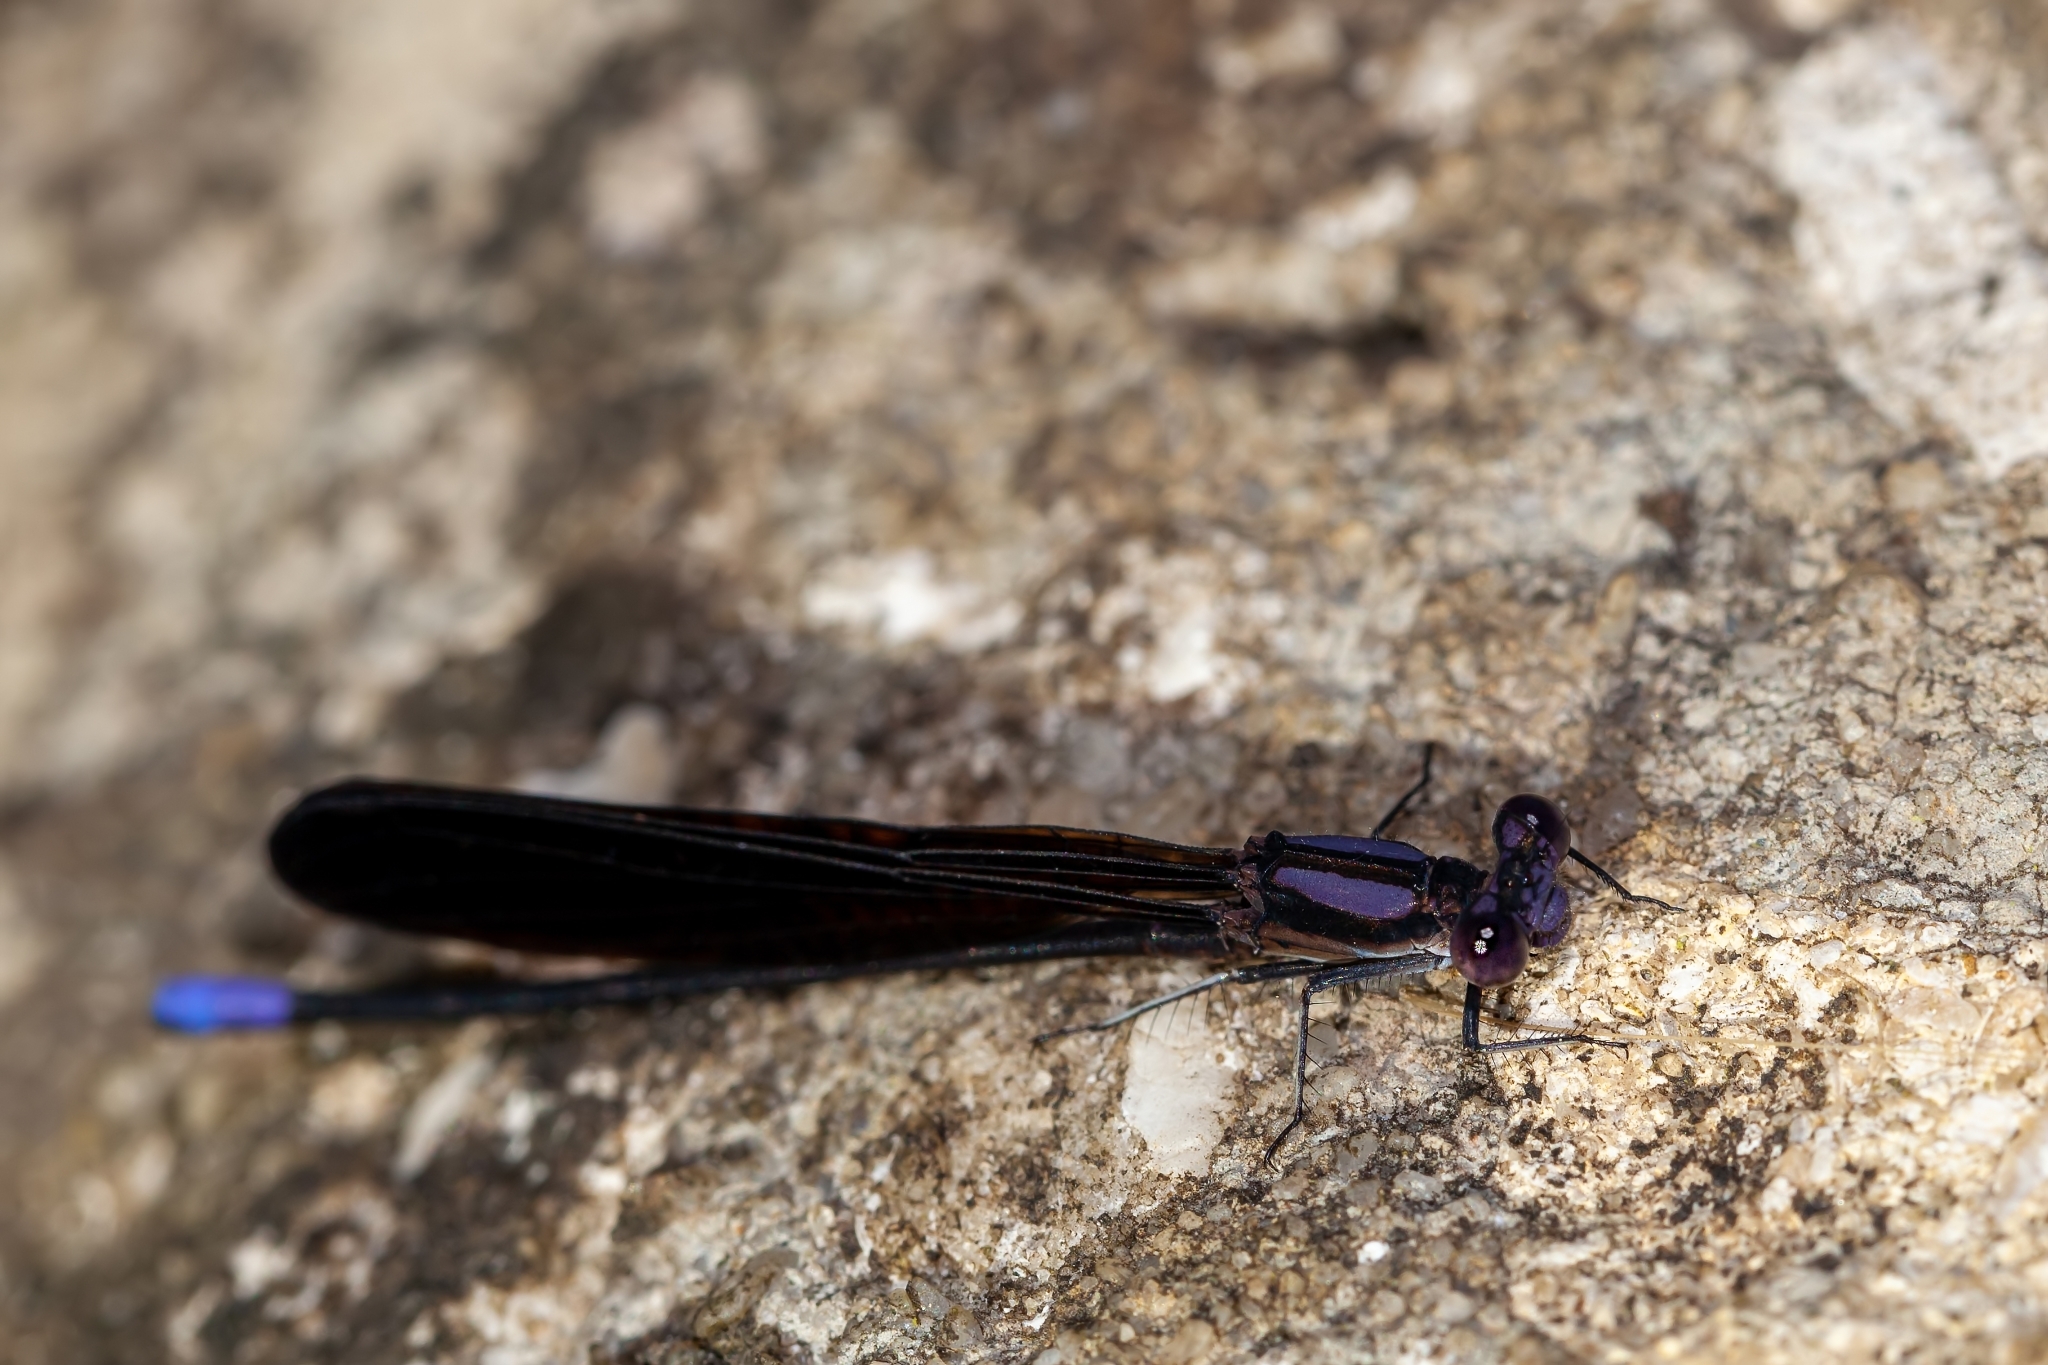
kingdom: Animalia
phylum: Arthropoda
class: Insecta
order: Odonata
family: Coenagrionidae
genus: Argia
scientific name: Argia fumipennis
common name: Variable dancer
